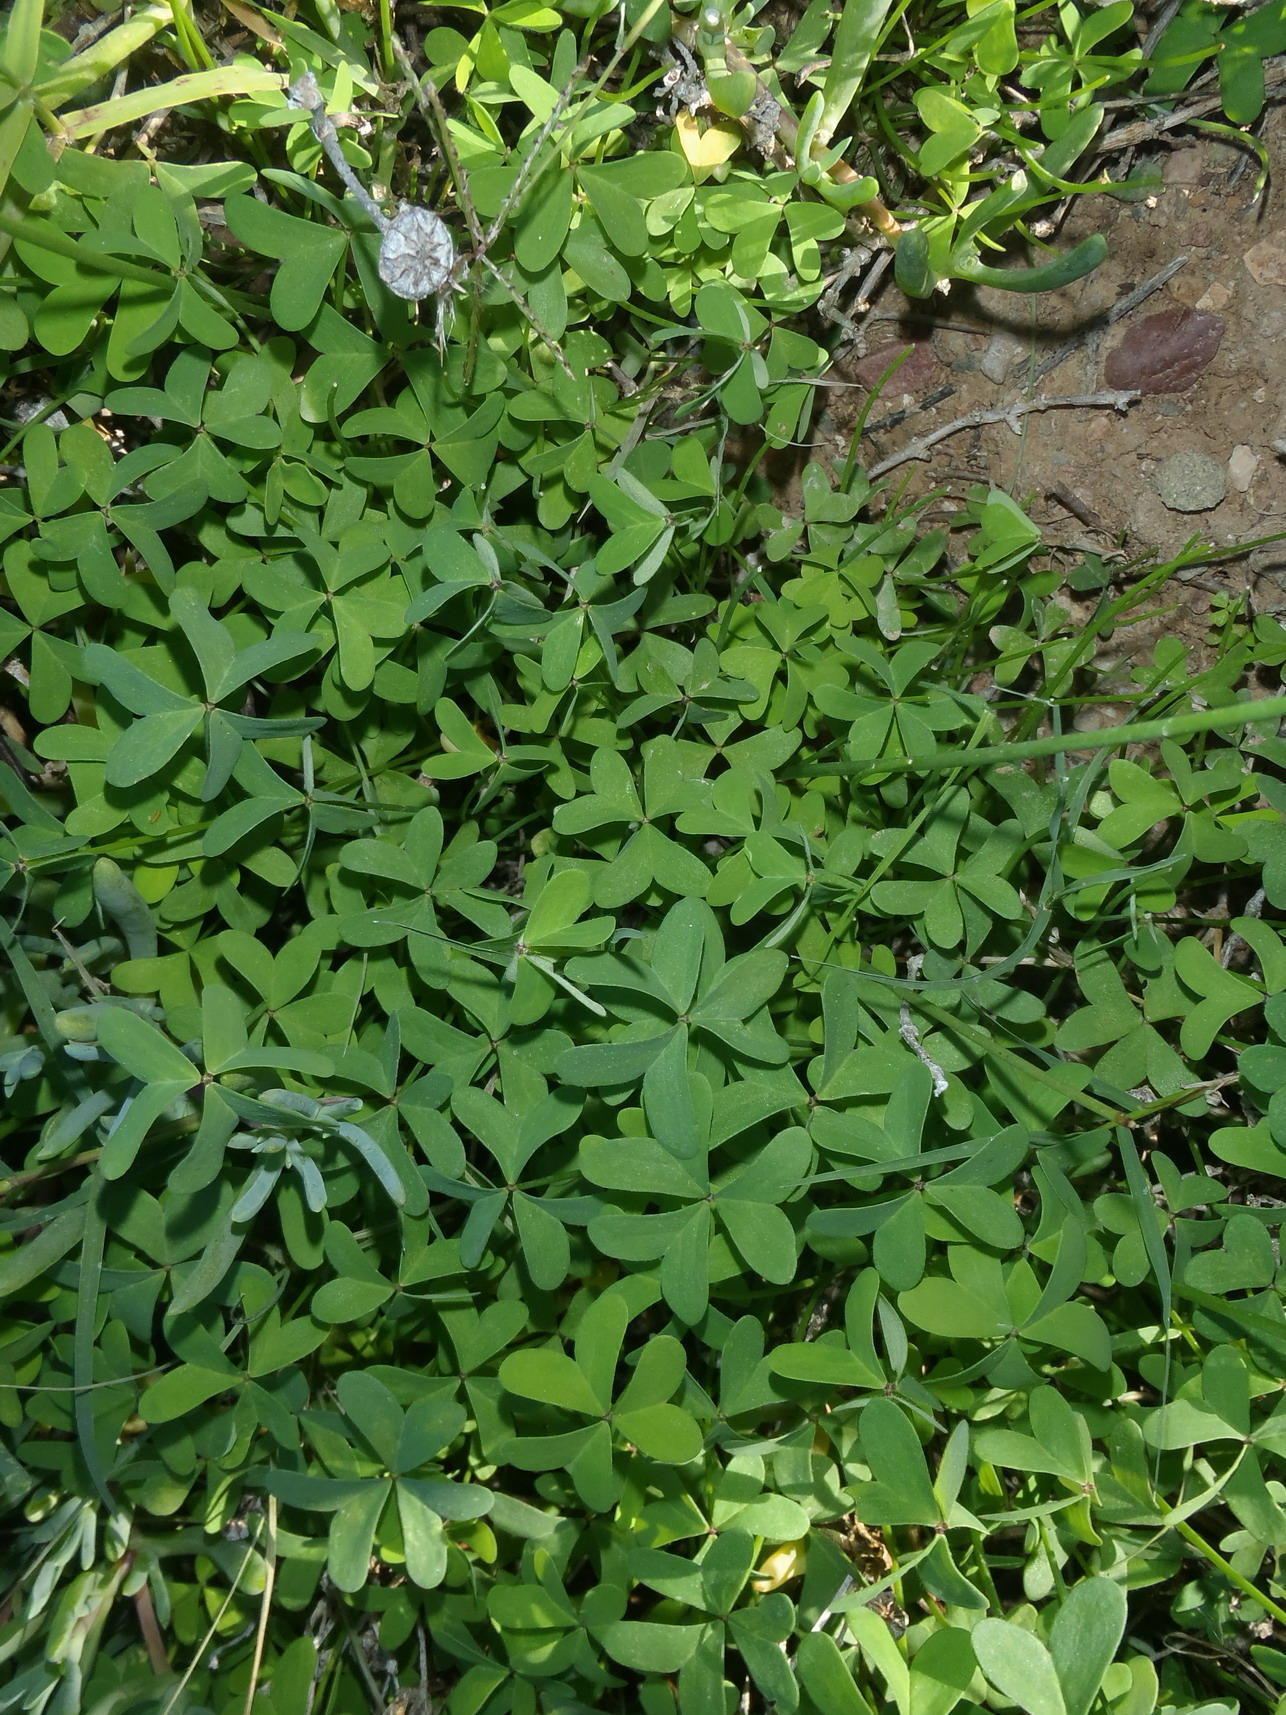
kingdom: Plantae
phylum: Tracheophyta
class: Magnoliopsida
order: Oxalidales
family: Oxalidaceae
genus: Oxalis
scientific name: Oxalis pes-caprae
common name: Bermuda-buttercup
